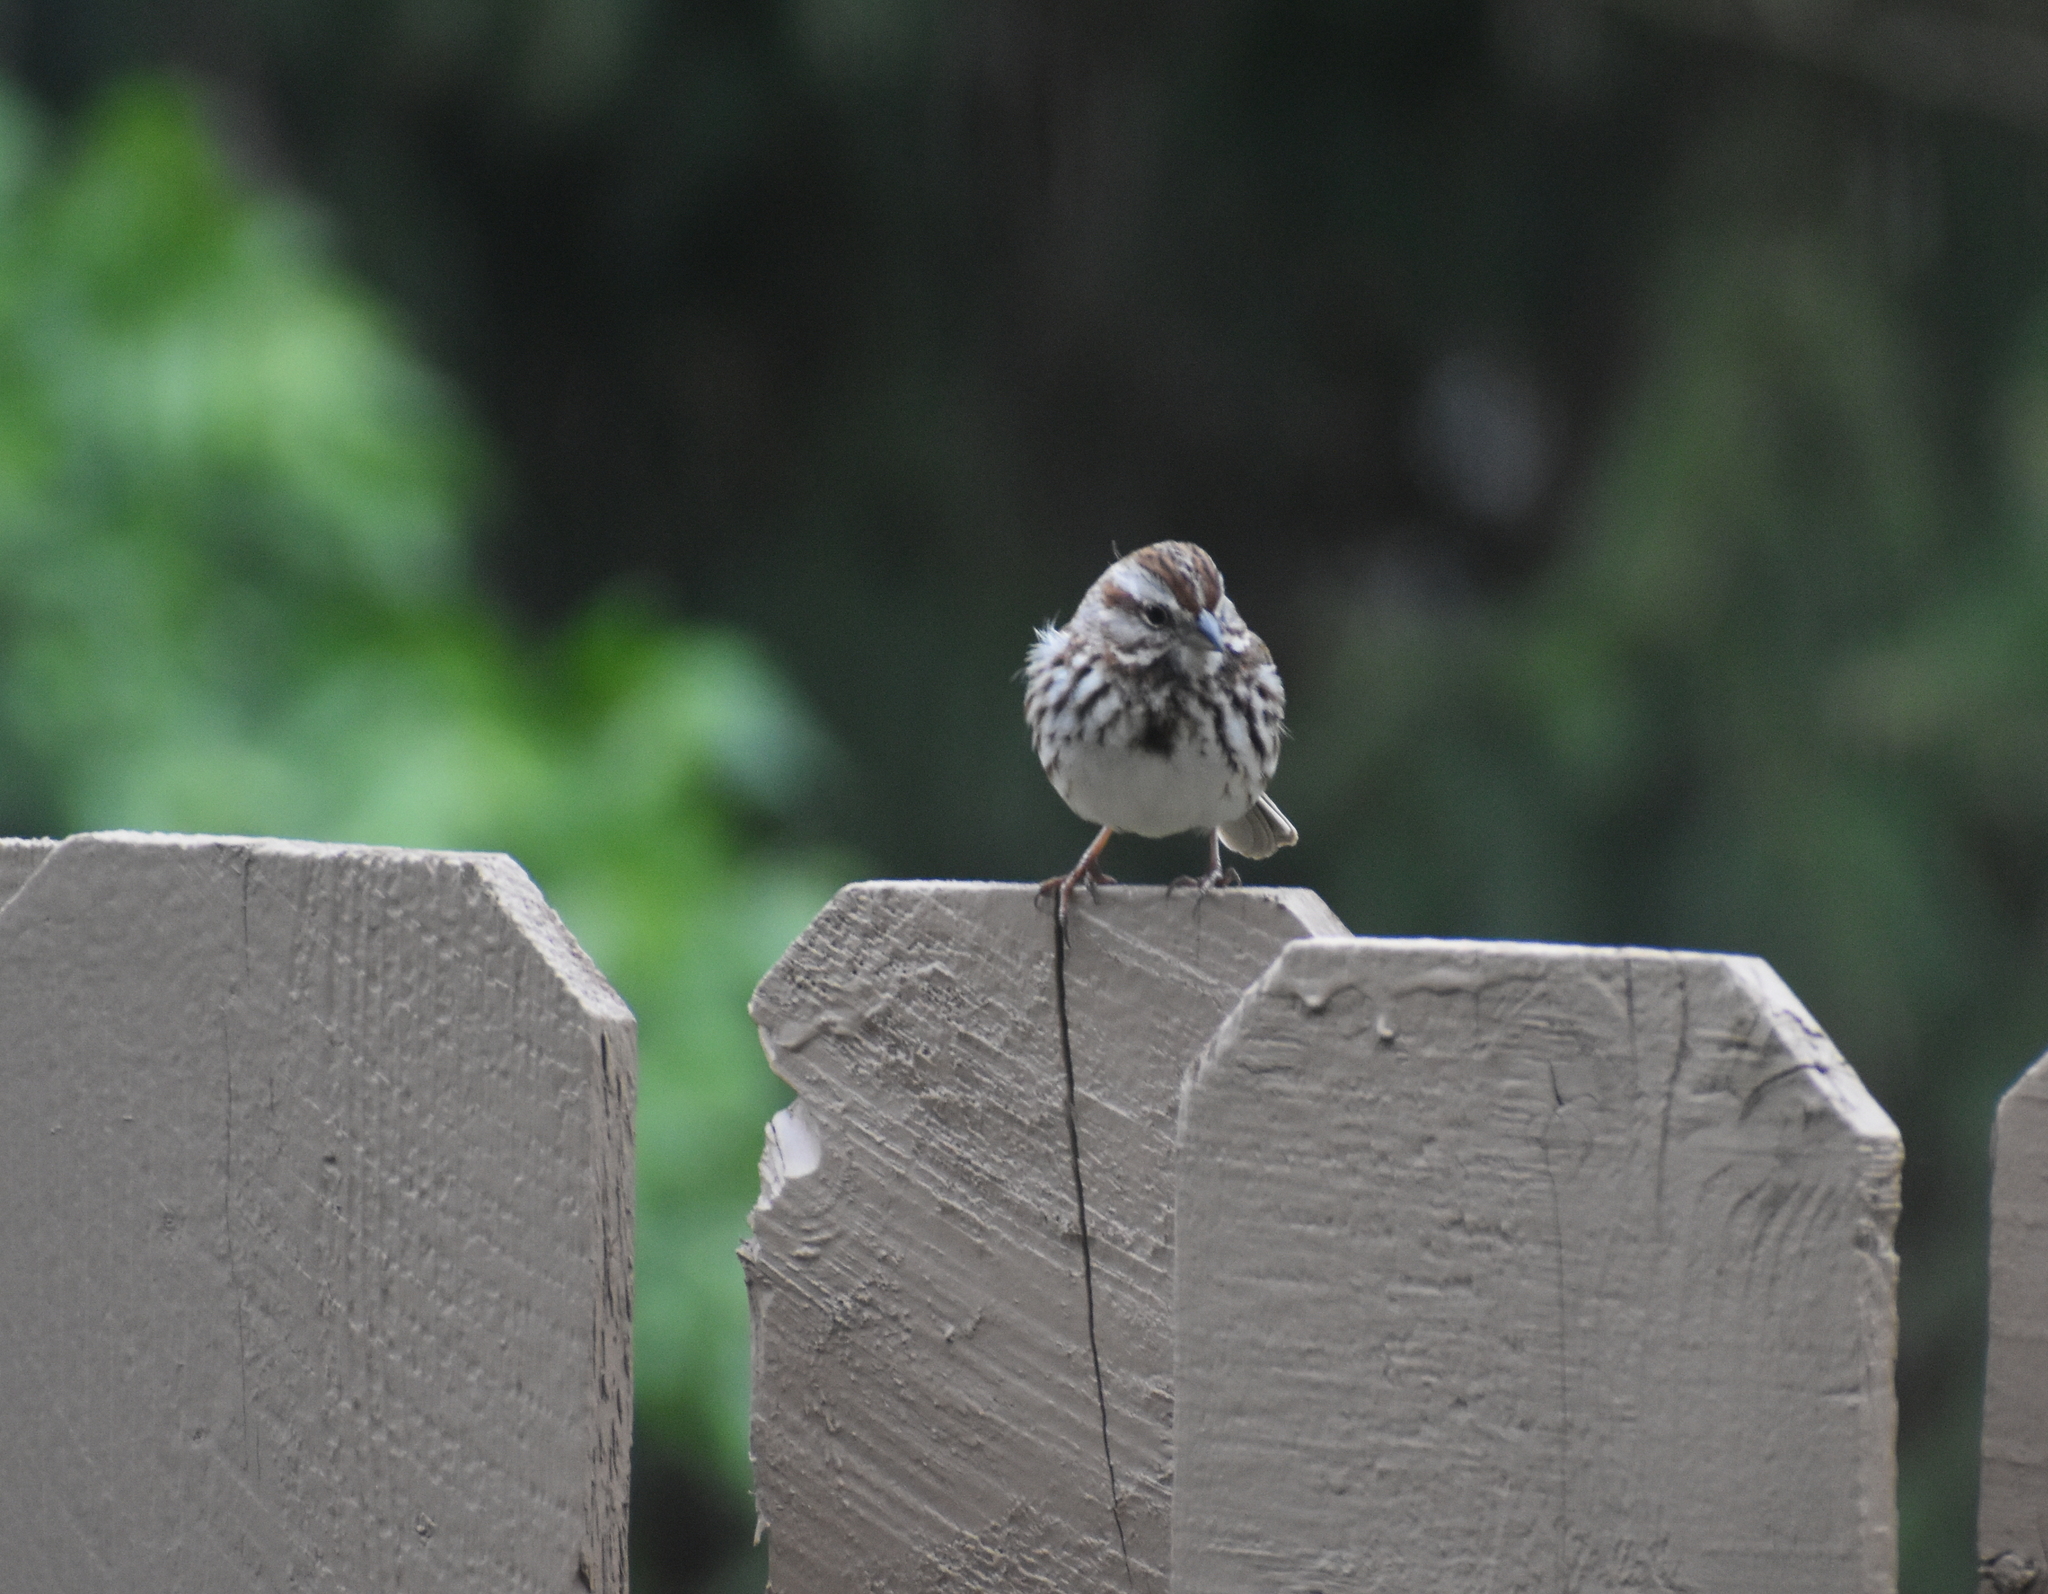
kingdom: Animalia
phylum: Chordata
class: Aves
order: Passeriformes
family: Passerellidae
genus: Melospiza
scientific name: Melospiza melodia
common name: Song sparrow
